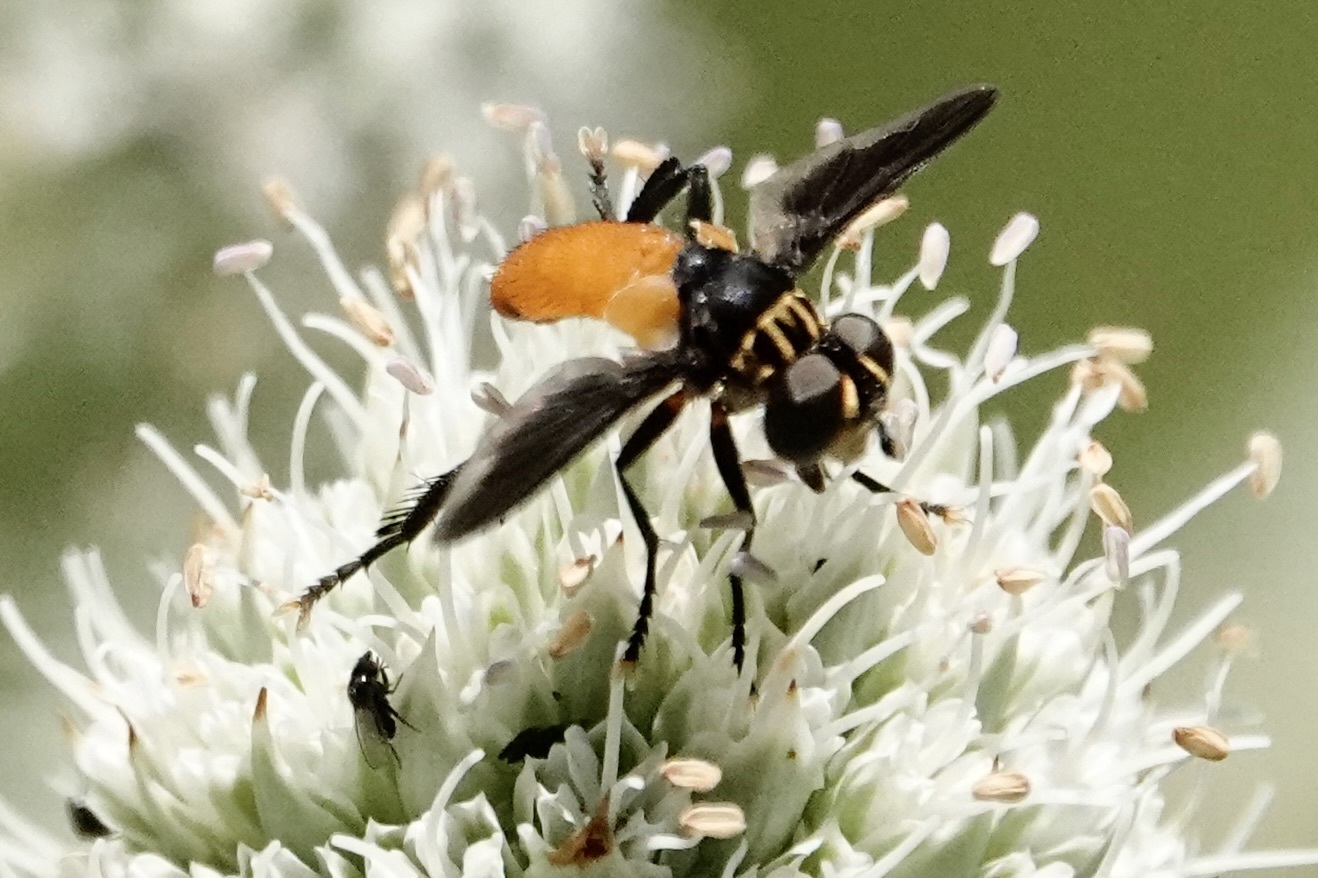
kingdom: Animalia
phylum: Arthropoda
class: Insecta
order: Diptera
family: Tachinidae
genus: Trichopoda
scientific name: Trichopoda pennipes
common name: Tachinid fly
